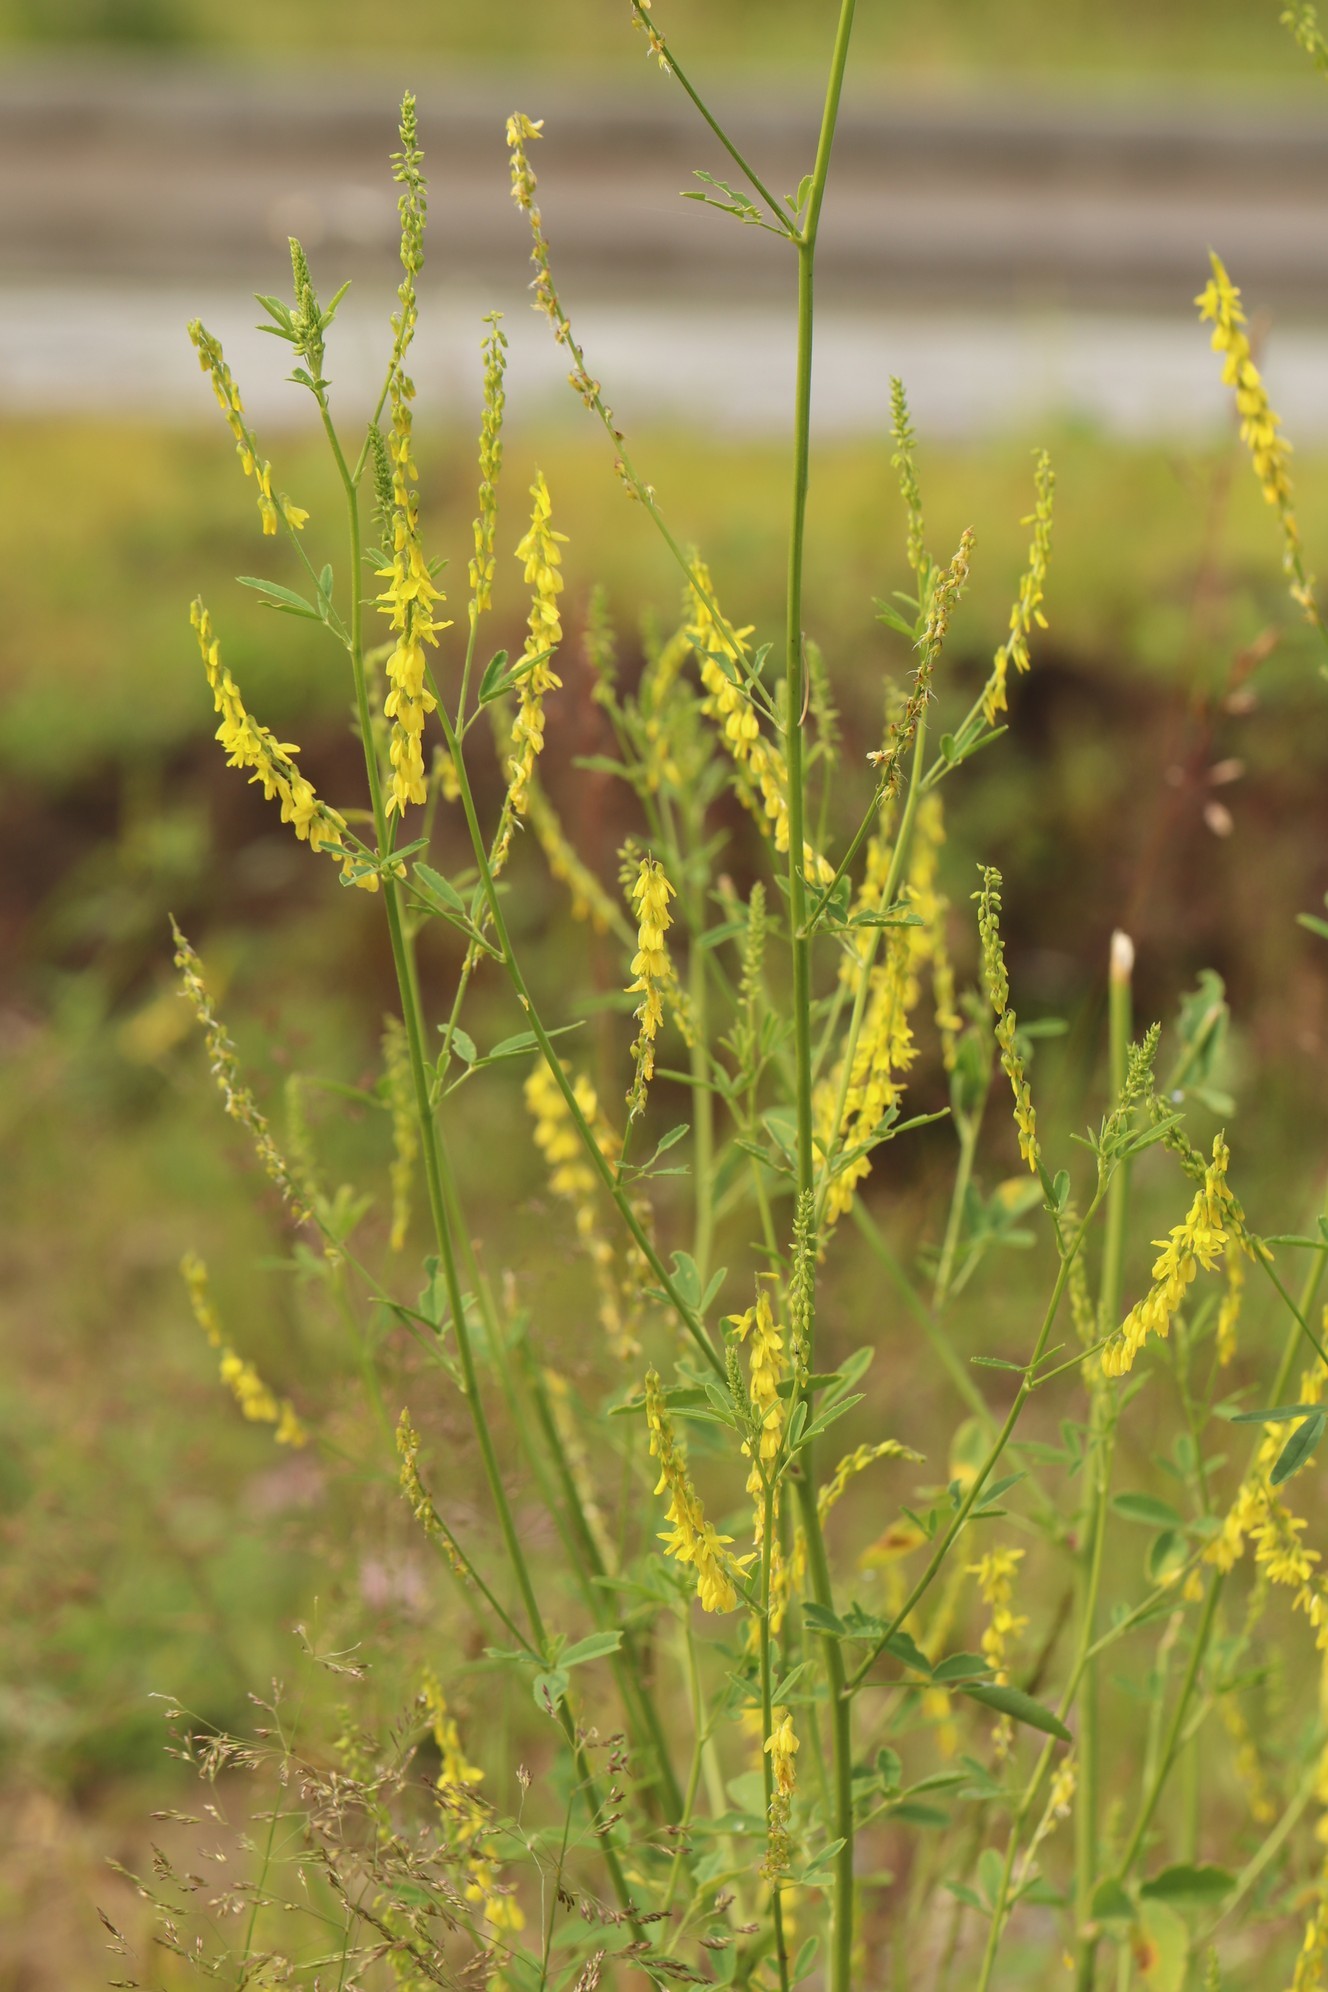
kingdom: Plantae
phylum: Tracheophyta
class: Magnoliopsida
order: Fabales
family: Fabaceae
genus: Melilotus
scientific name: Melilotus officinalis
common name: Sweetclover
